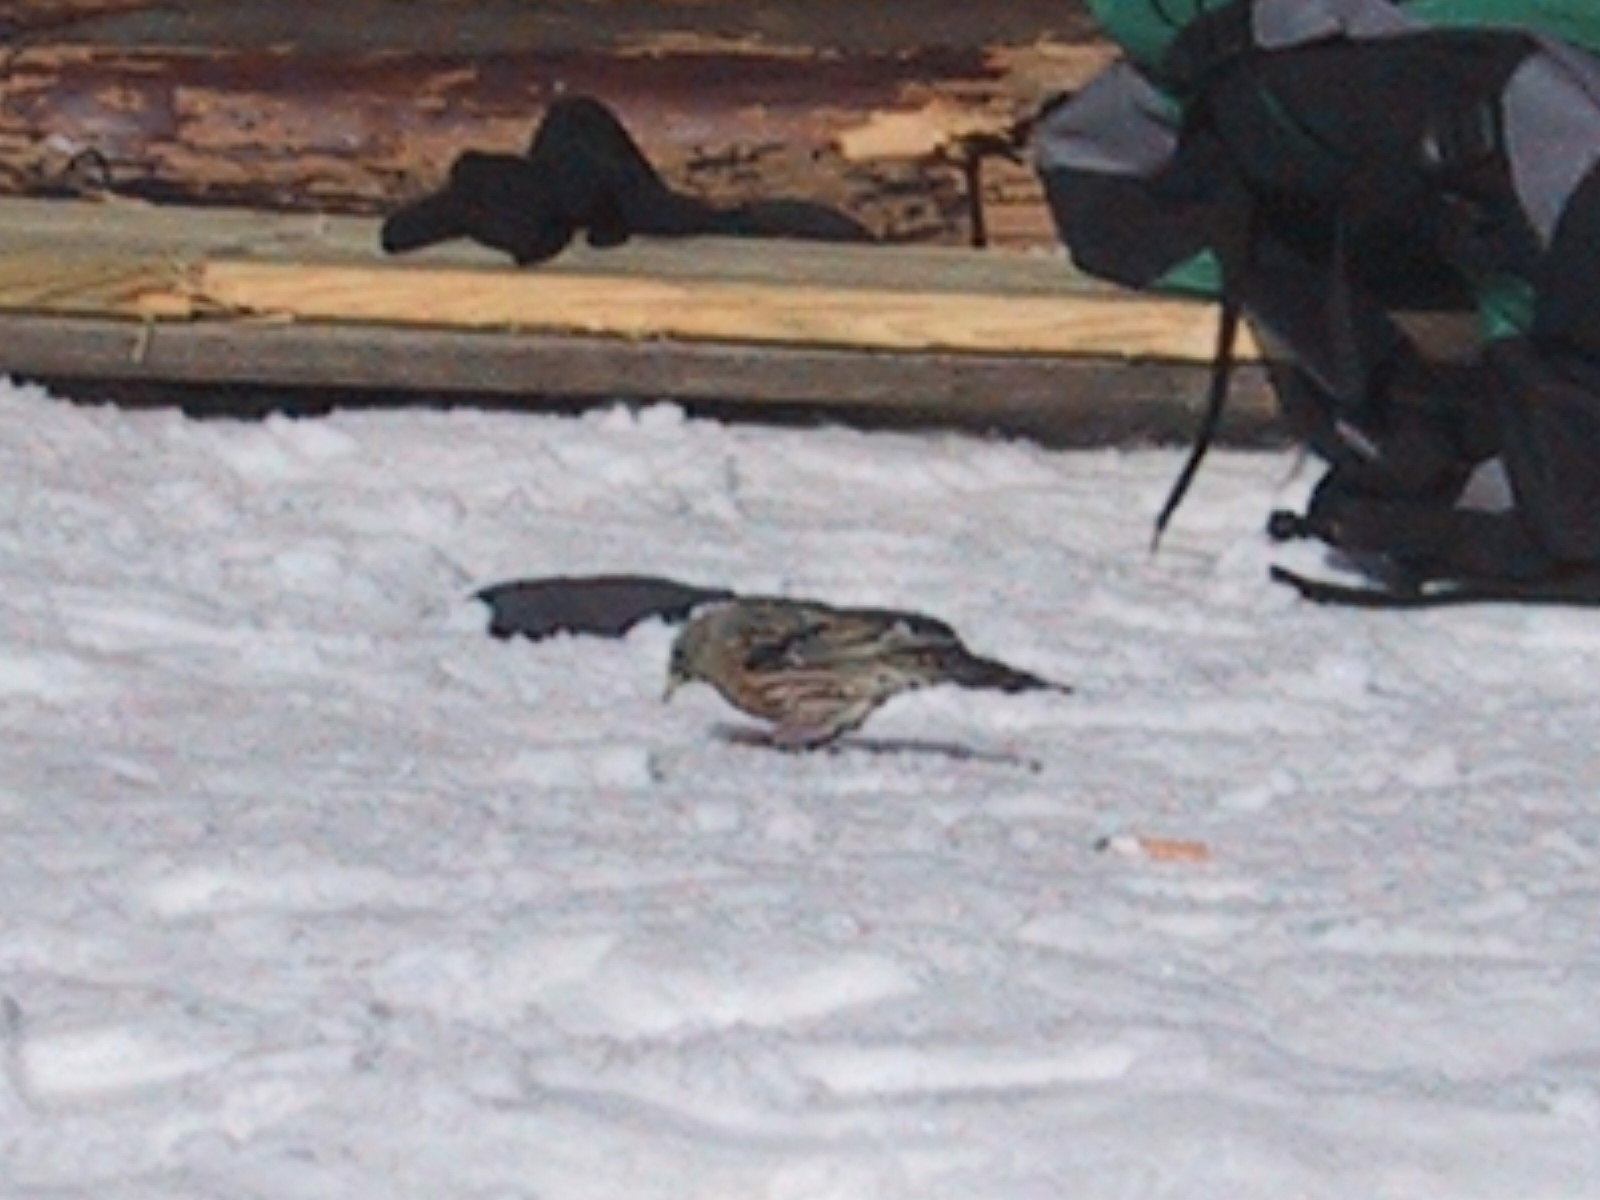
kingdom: Animalia
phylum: Chordata
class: Aves
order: Passeriformes
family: Prunellidae
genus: Prunella
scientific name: Prunella collaris
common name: Alpine accentor
